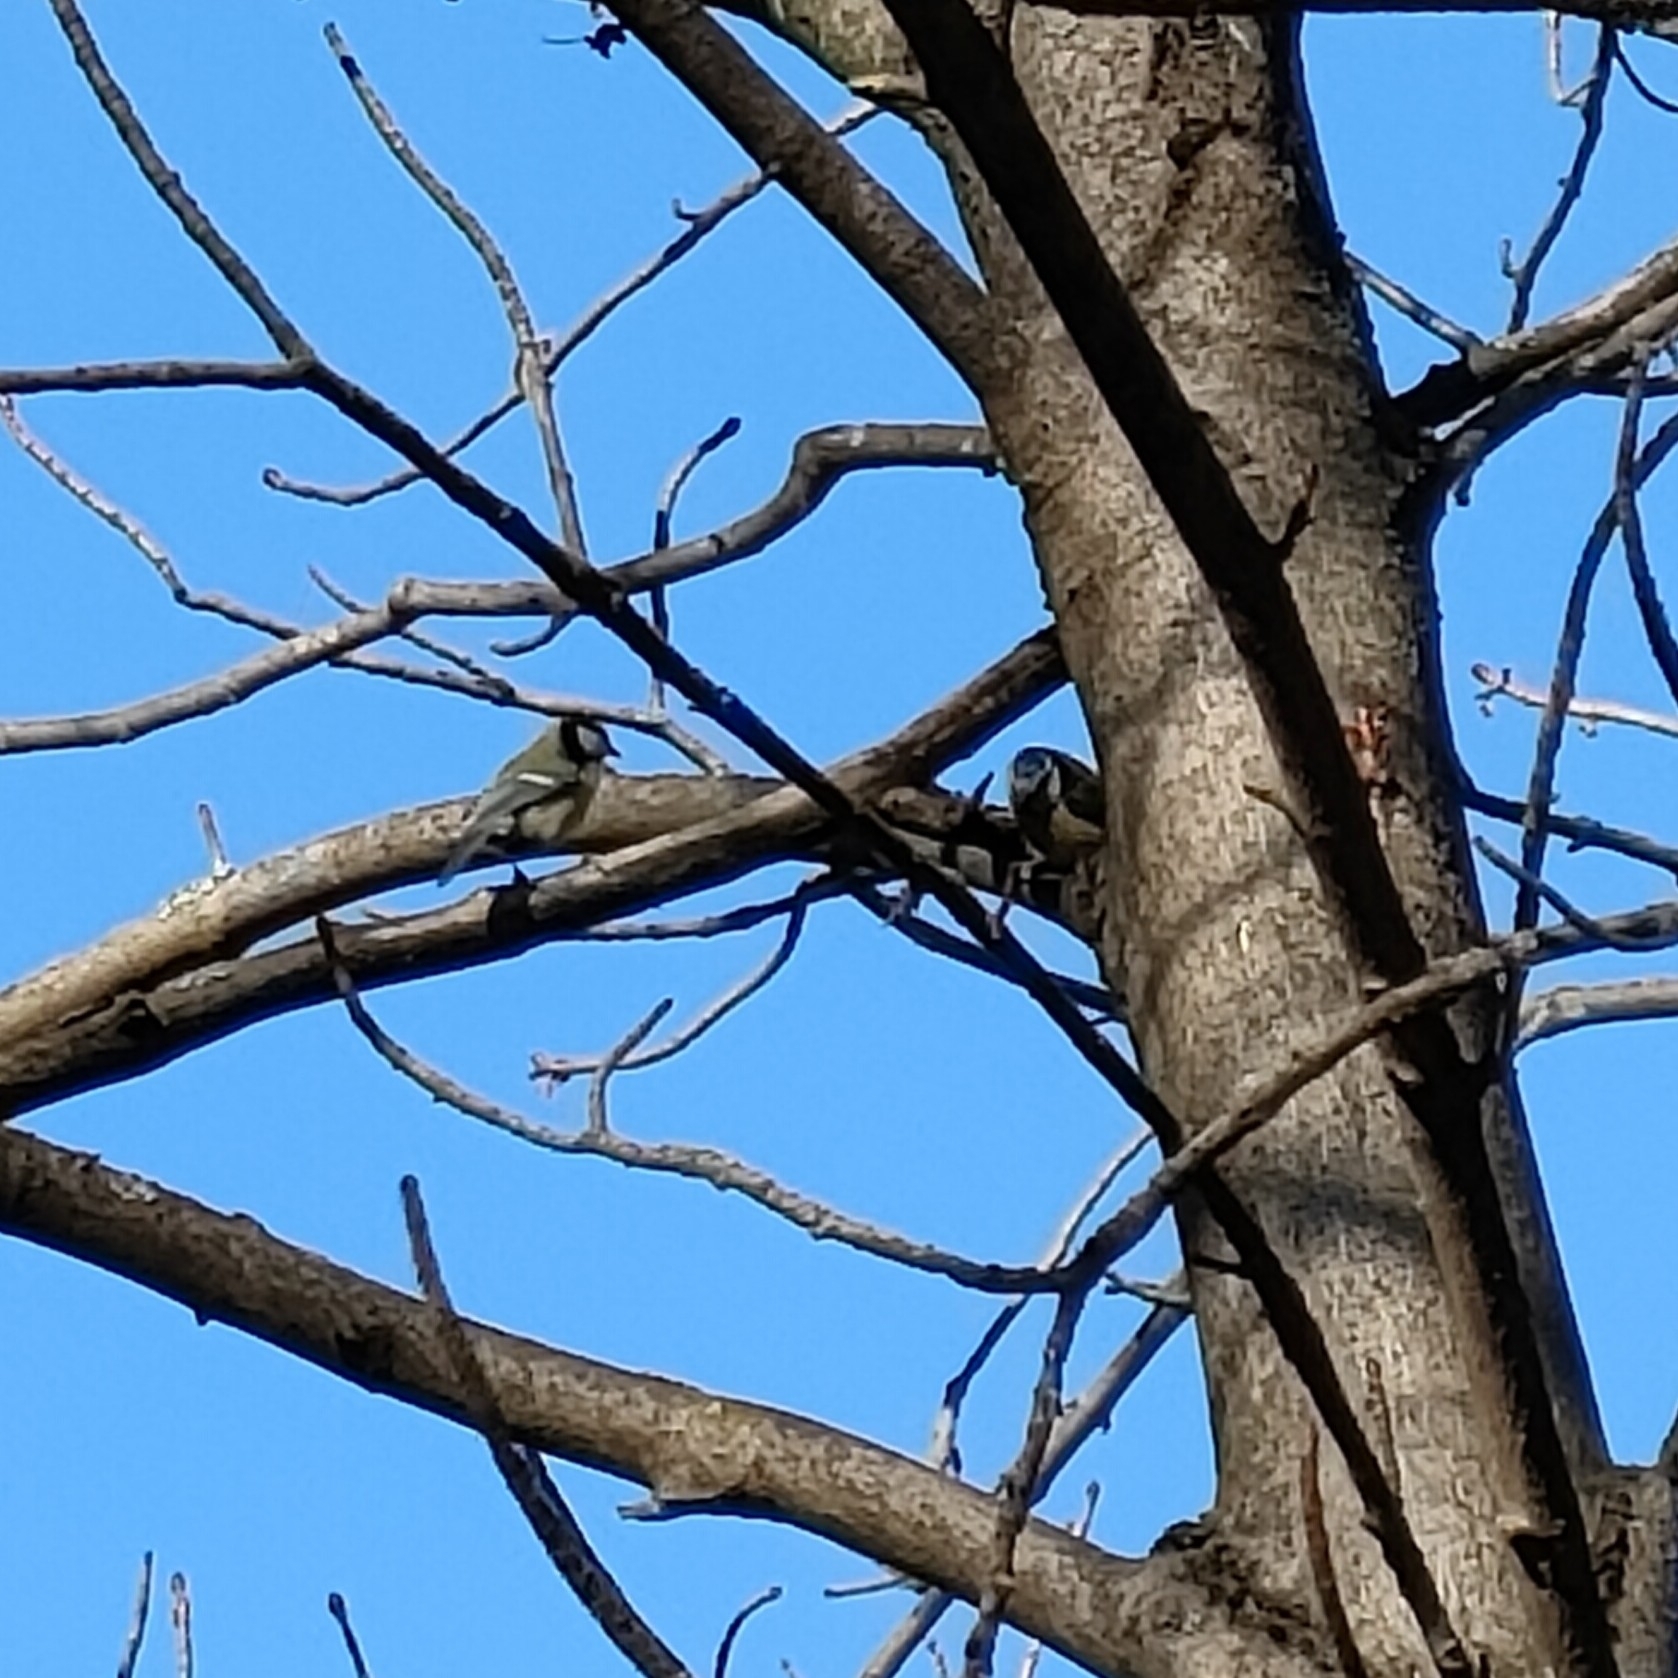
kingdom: Animalia
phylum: Chordata
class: Aves
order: Passeriformes
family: Paridae
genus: Cyanistes
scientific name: Cyanistes caeruleus
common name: Eurasian blue tit
